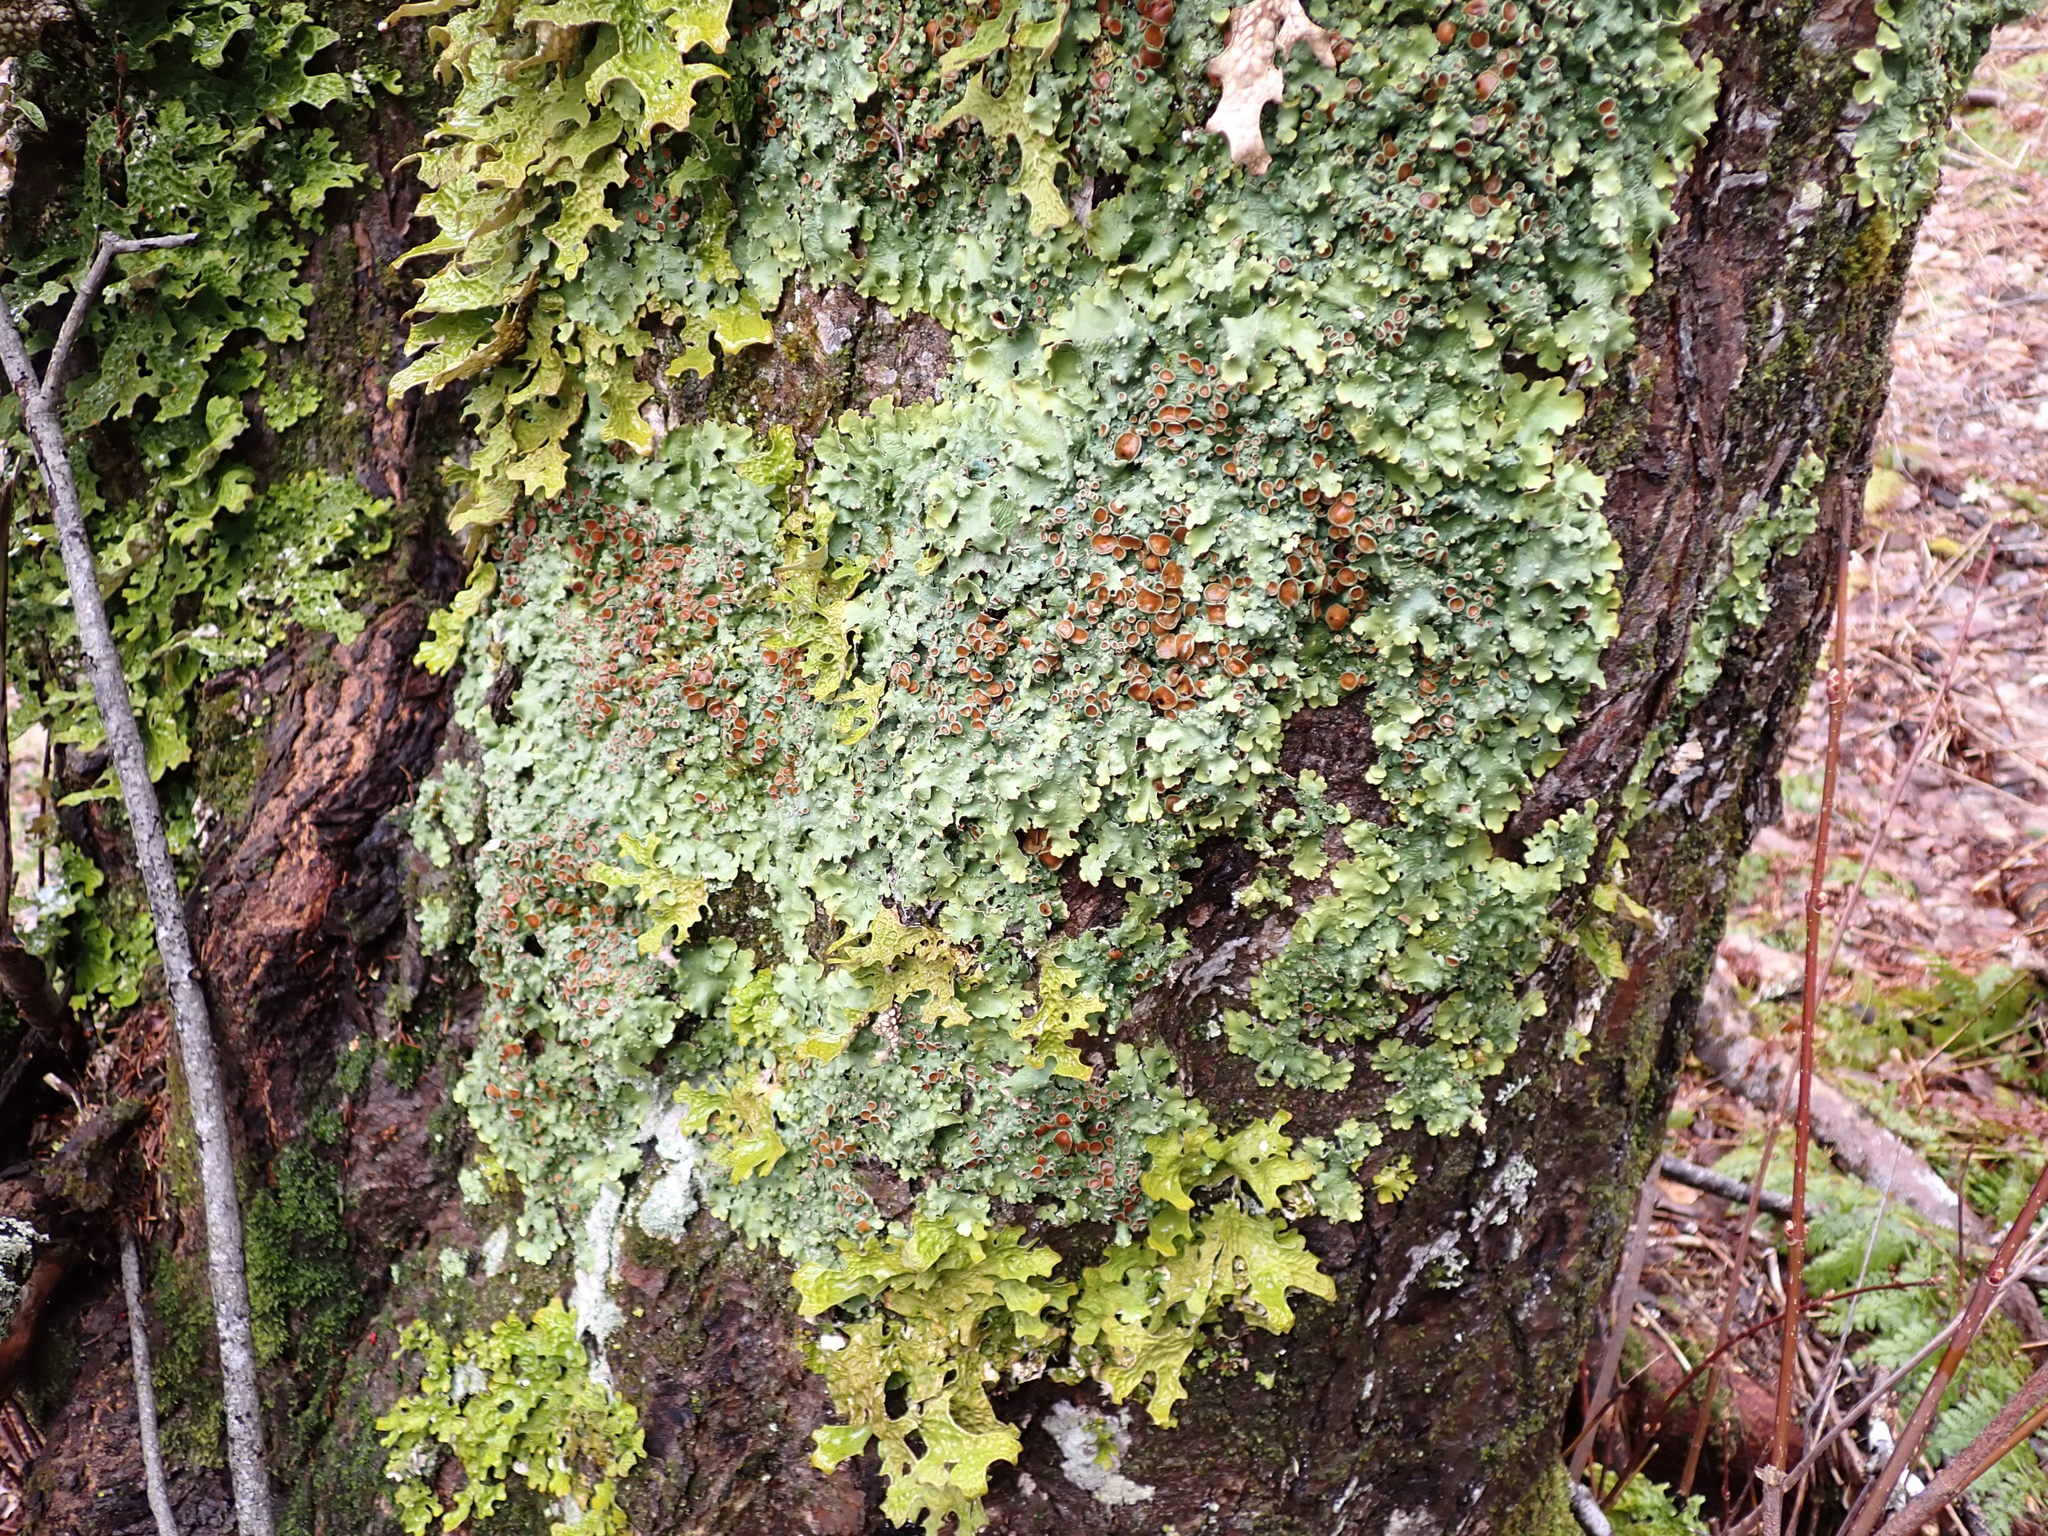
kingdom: Fungi
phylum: Ascomycota
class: Lecanoromycetes
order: Peltigerales
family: Lobariaceae
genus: Ricasolia
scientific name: Ricasolia quercizans
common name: Smooth lungwort
